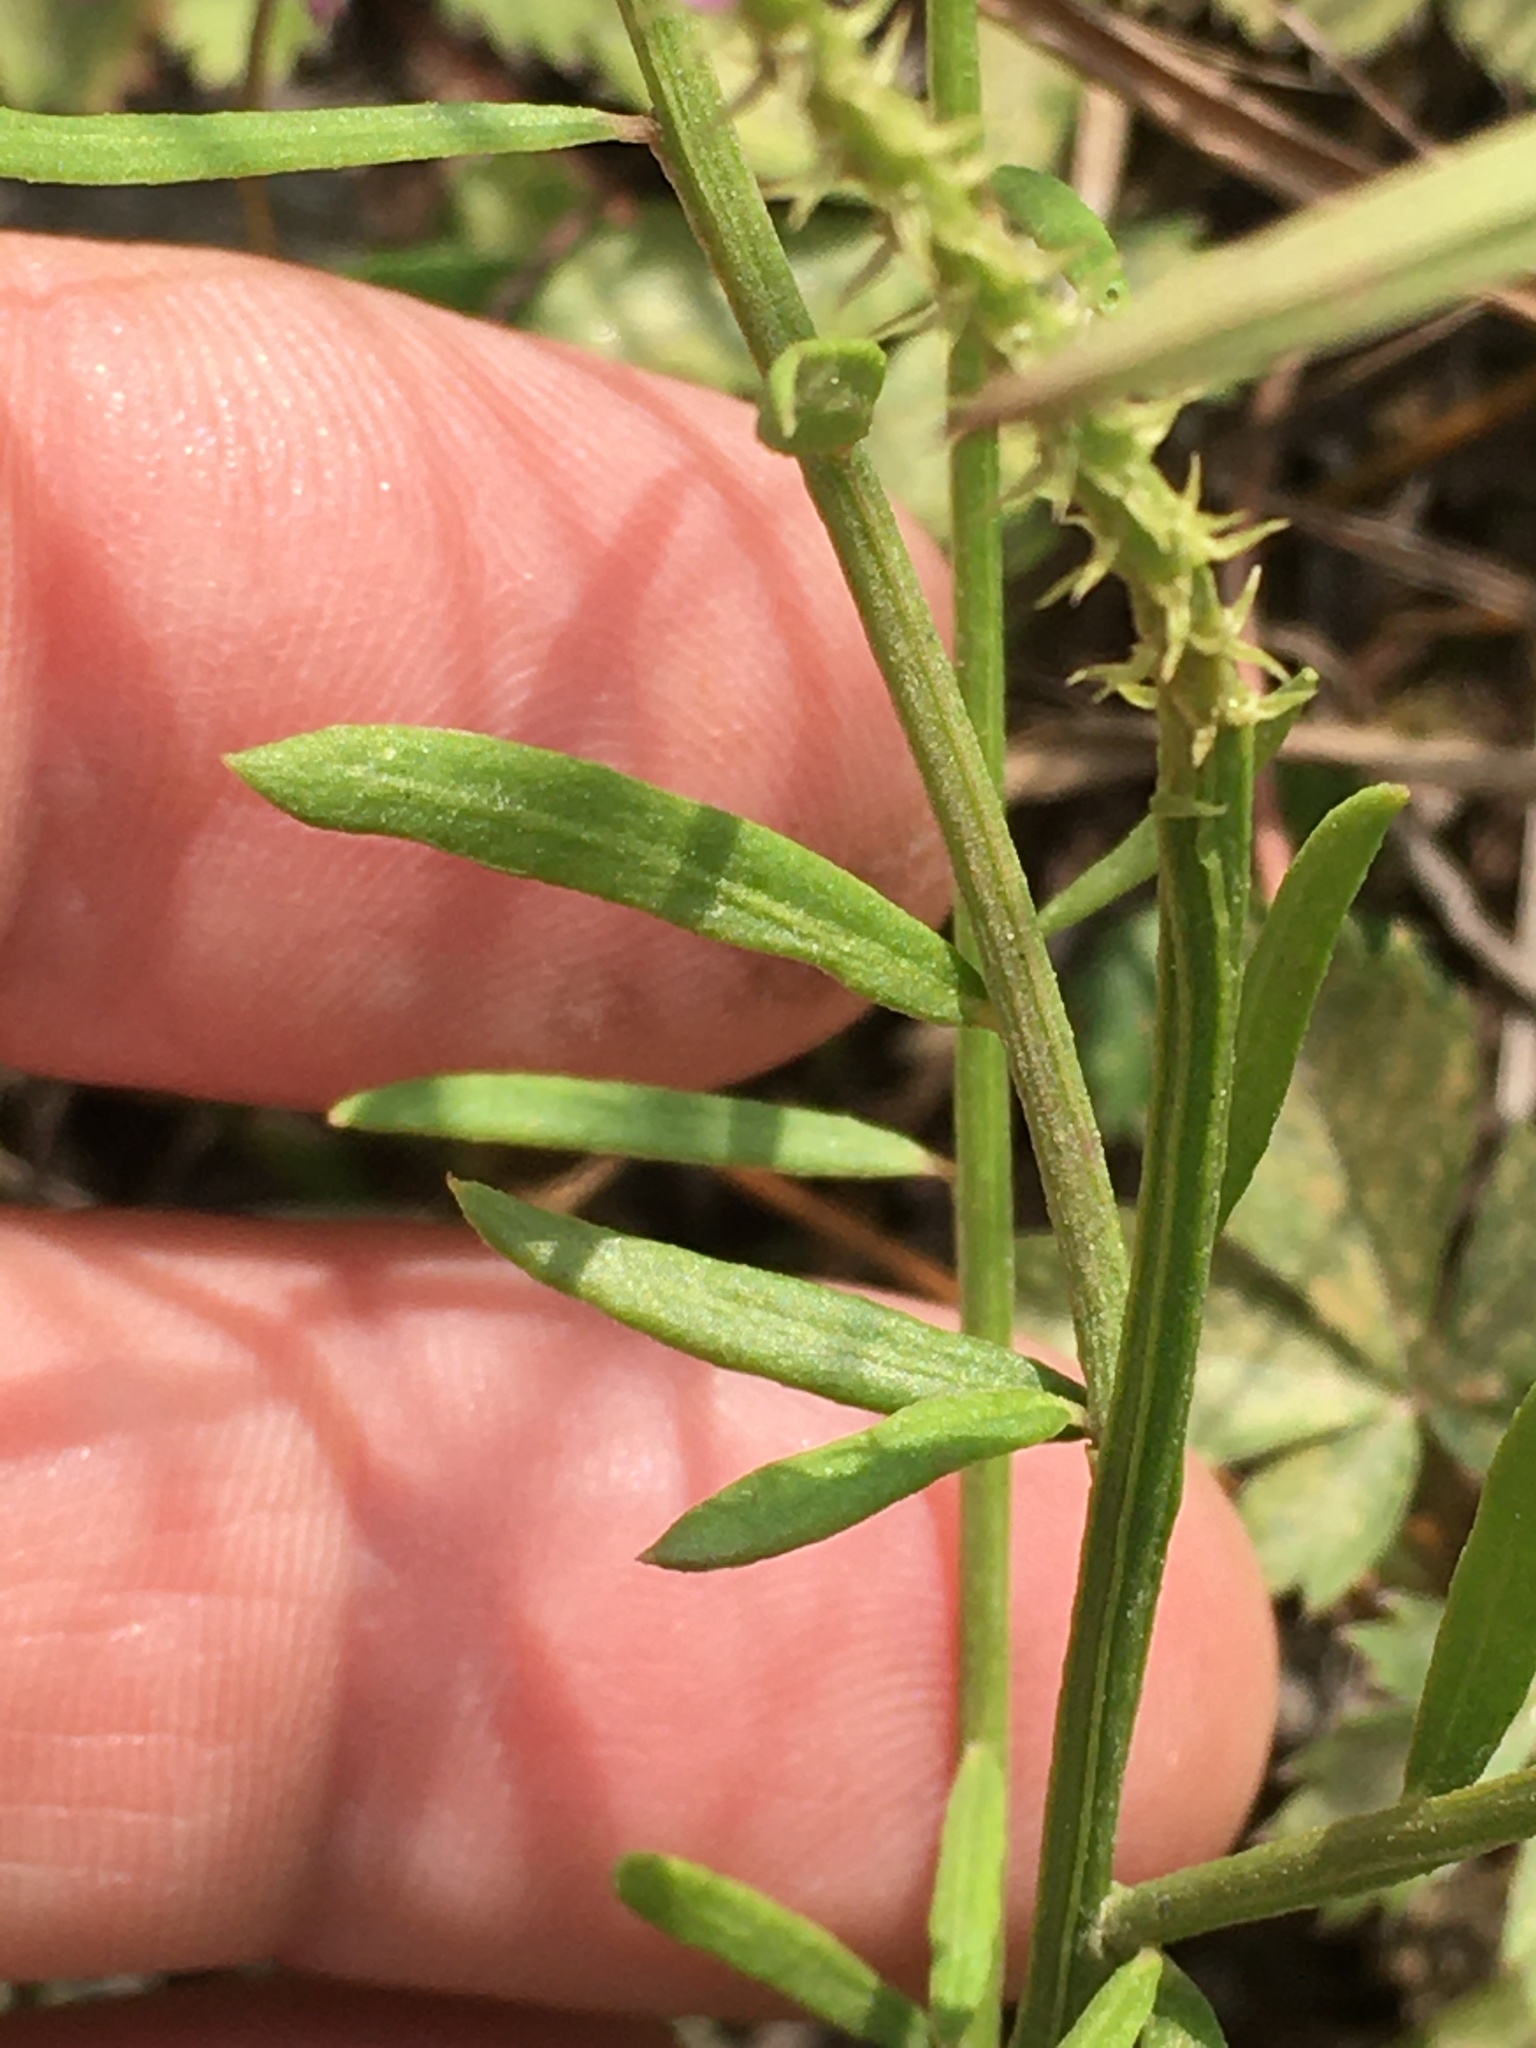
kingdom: Plantae
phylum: Tracheophyta
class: Magnoliopsida
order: Fabales
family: Polygalaceae
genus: Polygala
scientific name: Polygala curtissii
